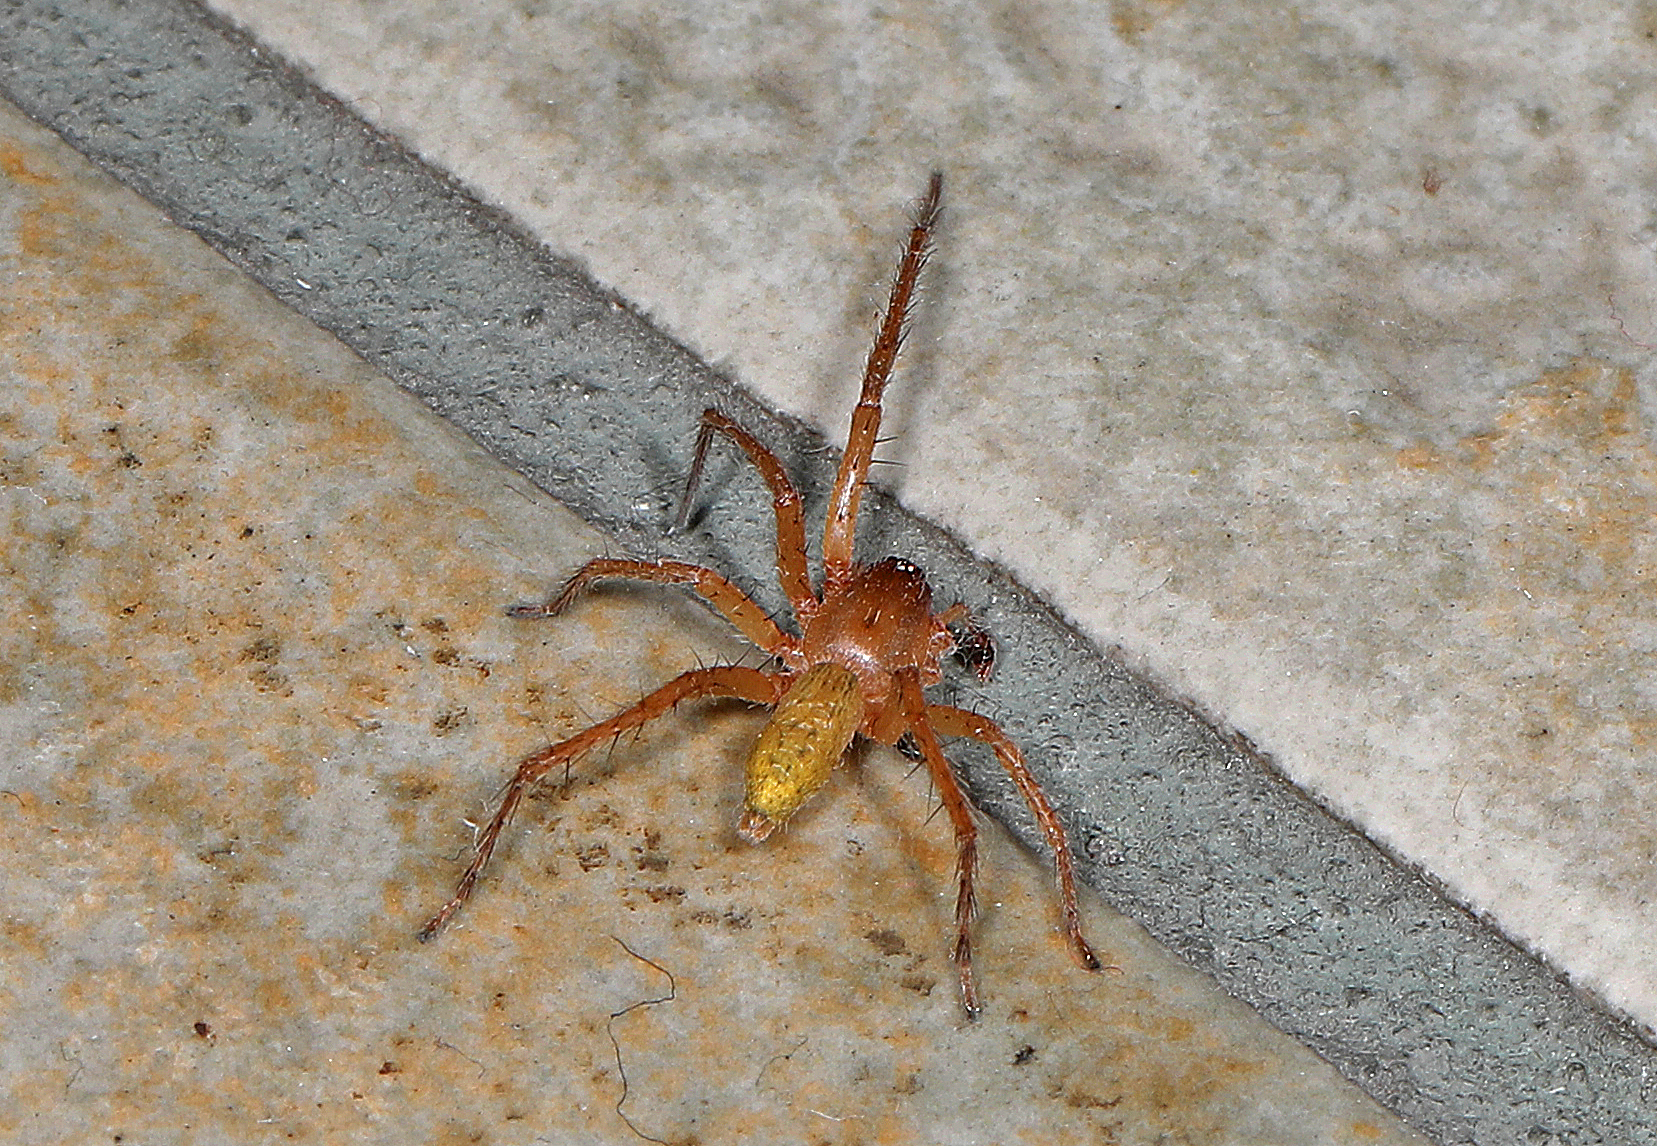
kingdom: Animalia
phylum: Arthropoda
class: Arachnida
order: Araneae
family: Anyphaenidae
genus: Hibana
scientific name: Hibana velox
